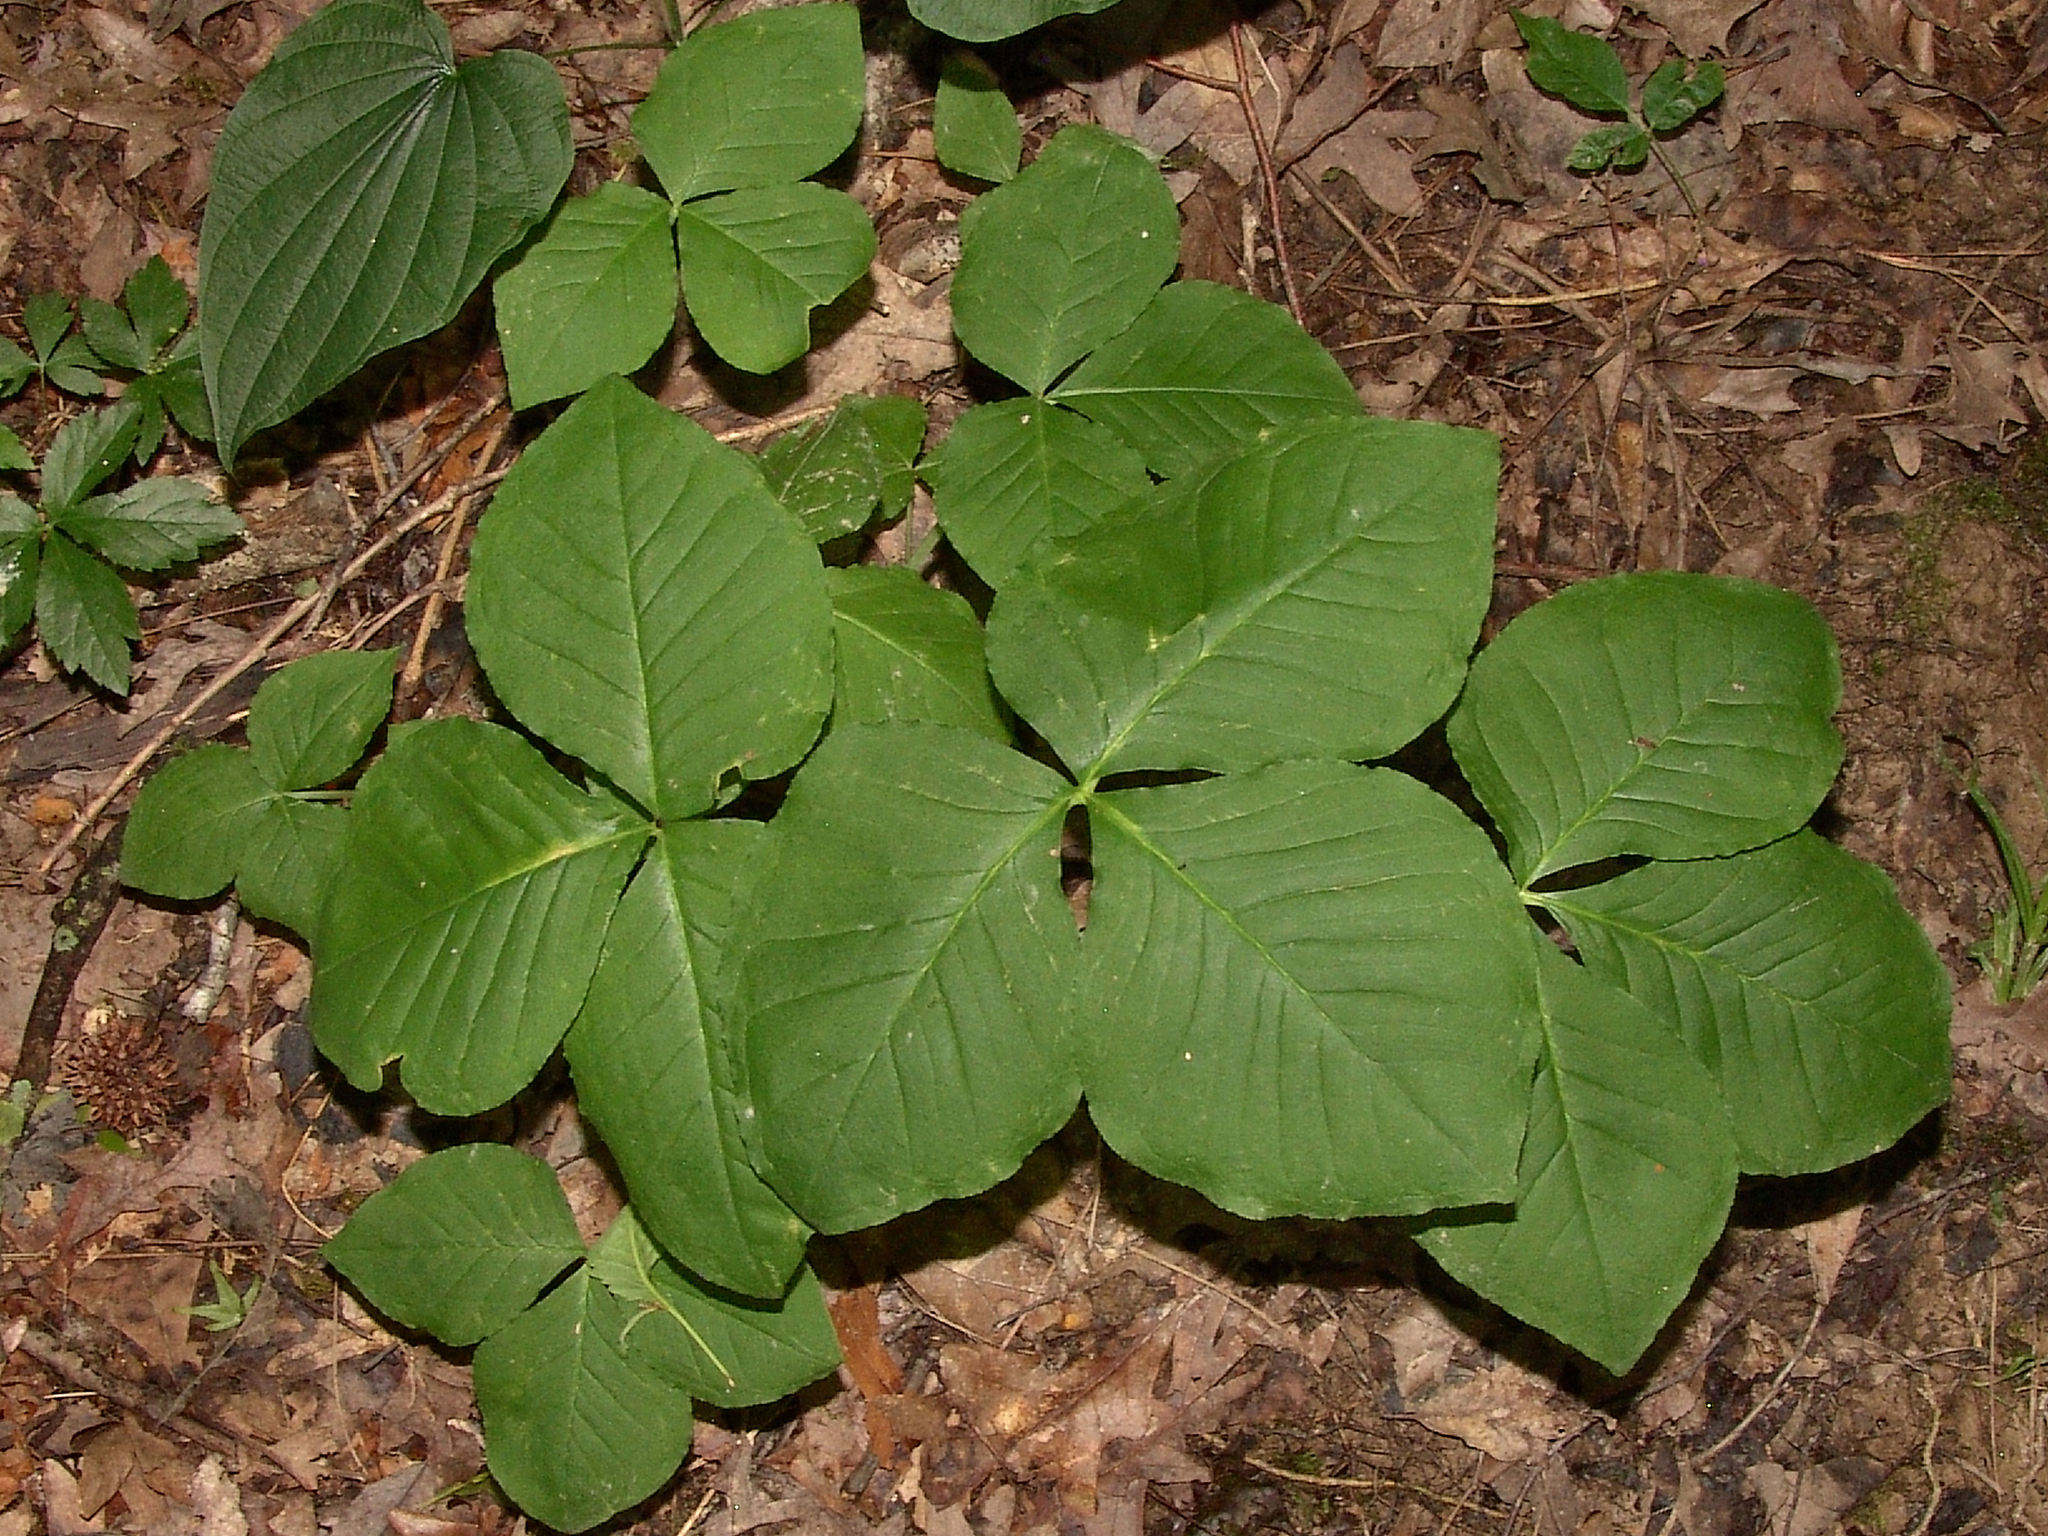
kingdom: Plantae
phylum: Tracheophyta
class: Liliopsida
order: Alismatales
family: Araceae
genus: Arisaema
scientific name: Arisaema triphyllum
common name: Jack-in-the-pulpit
